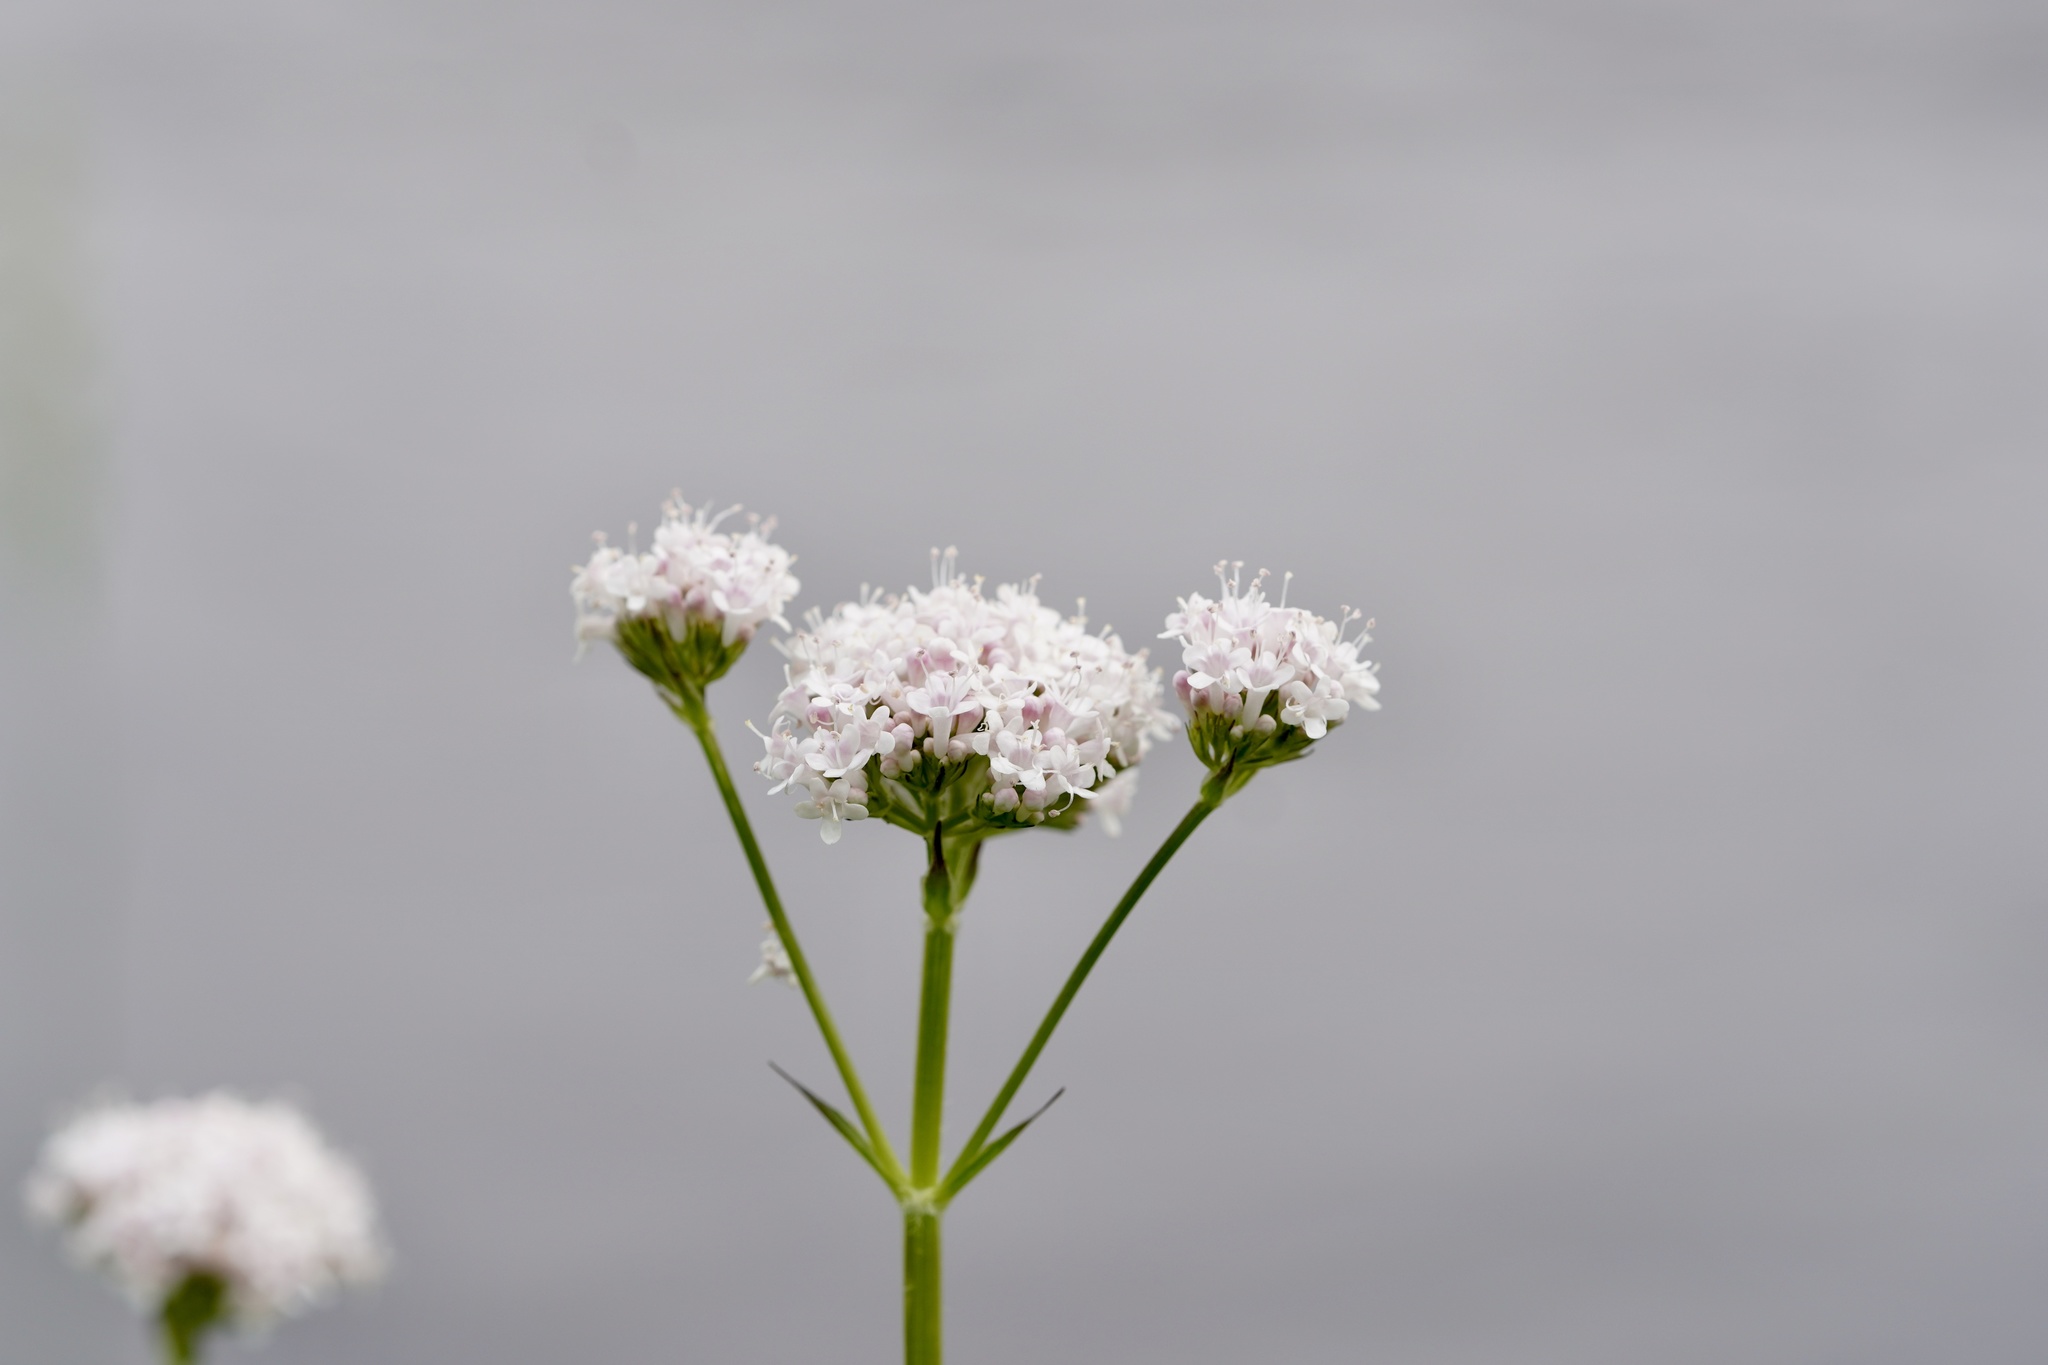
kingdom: Plantae
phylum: Tracheophyta
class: Magnoliopsida
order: Dipsacales
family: Caprifoliaceae
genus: Valeriana
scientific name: Valeriana officinalis
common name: Common valerian
